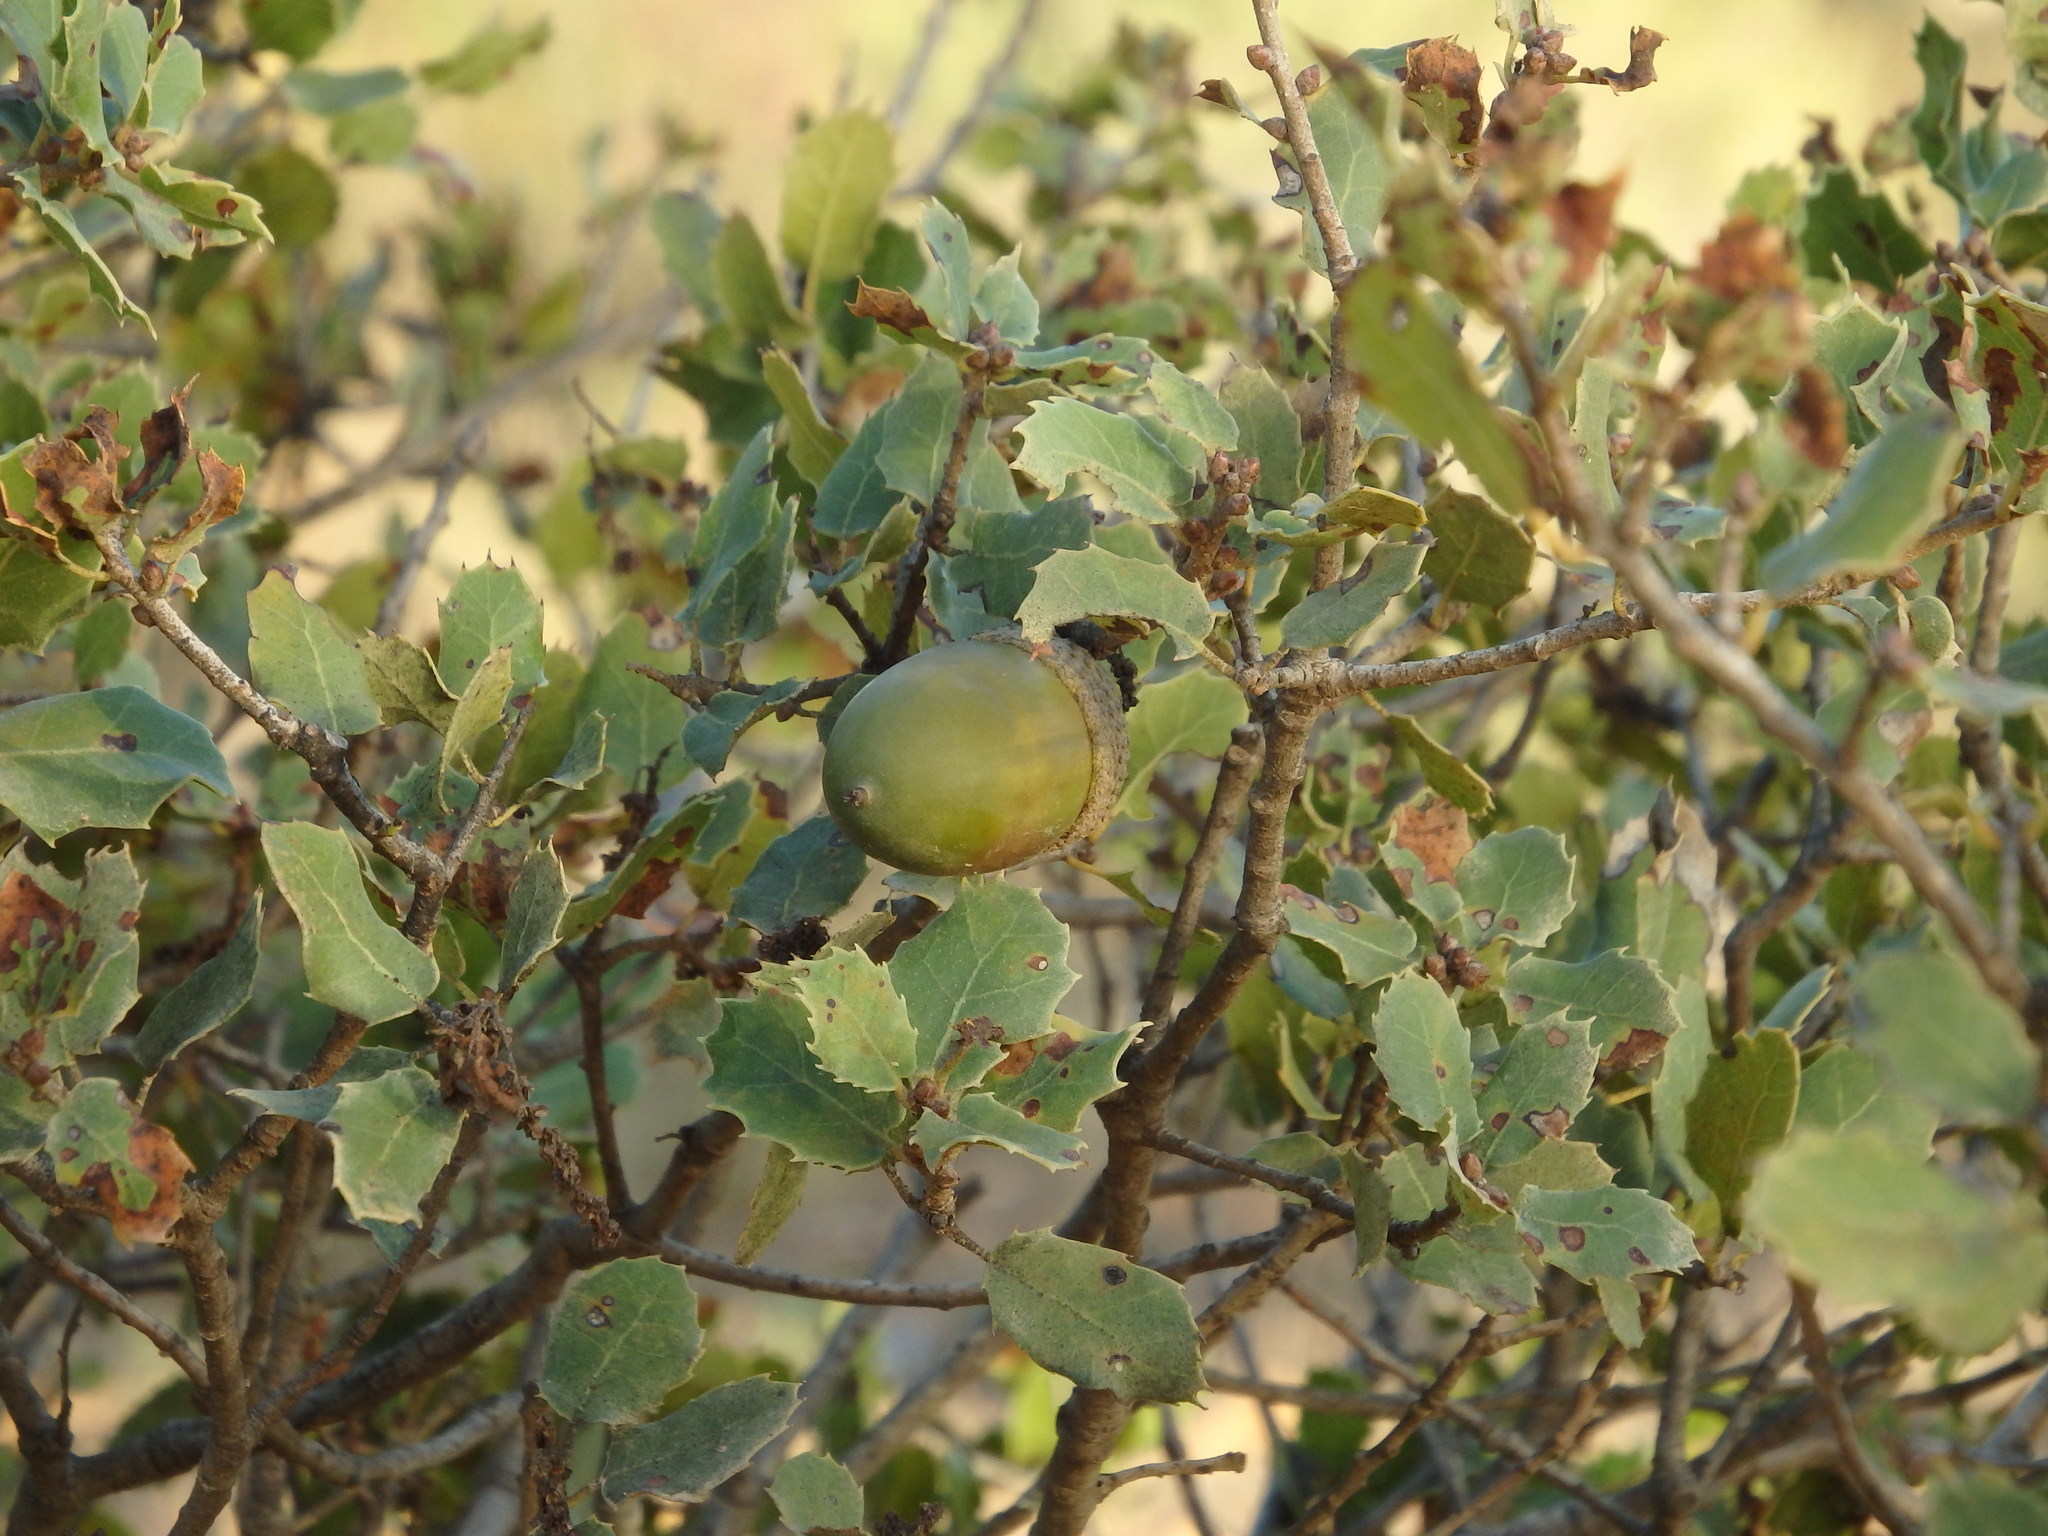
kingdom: Plantae
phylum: Tracheophyta
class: Magnoliopsida
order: Fagales
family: Fagaceae
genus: Quercus
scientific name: Quercus coccifera
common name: Kermes oak
